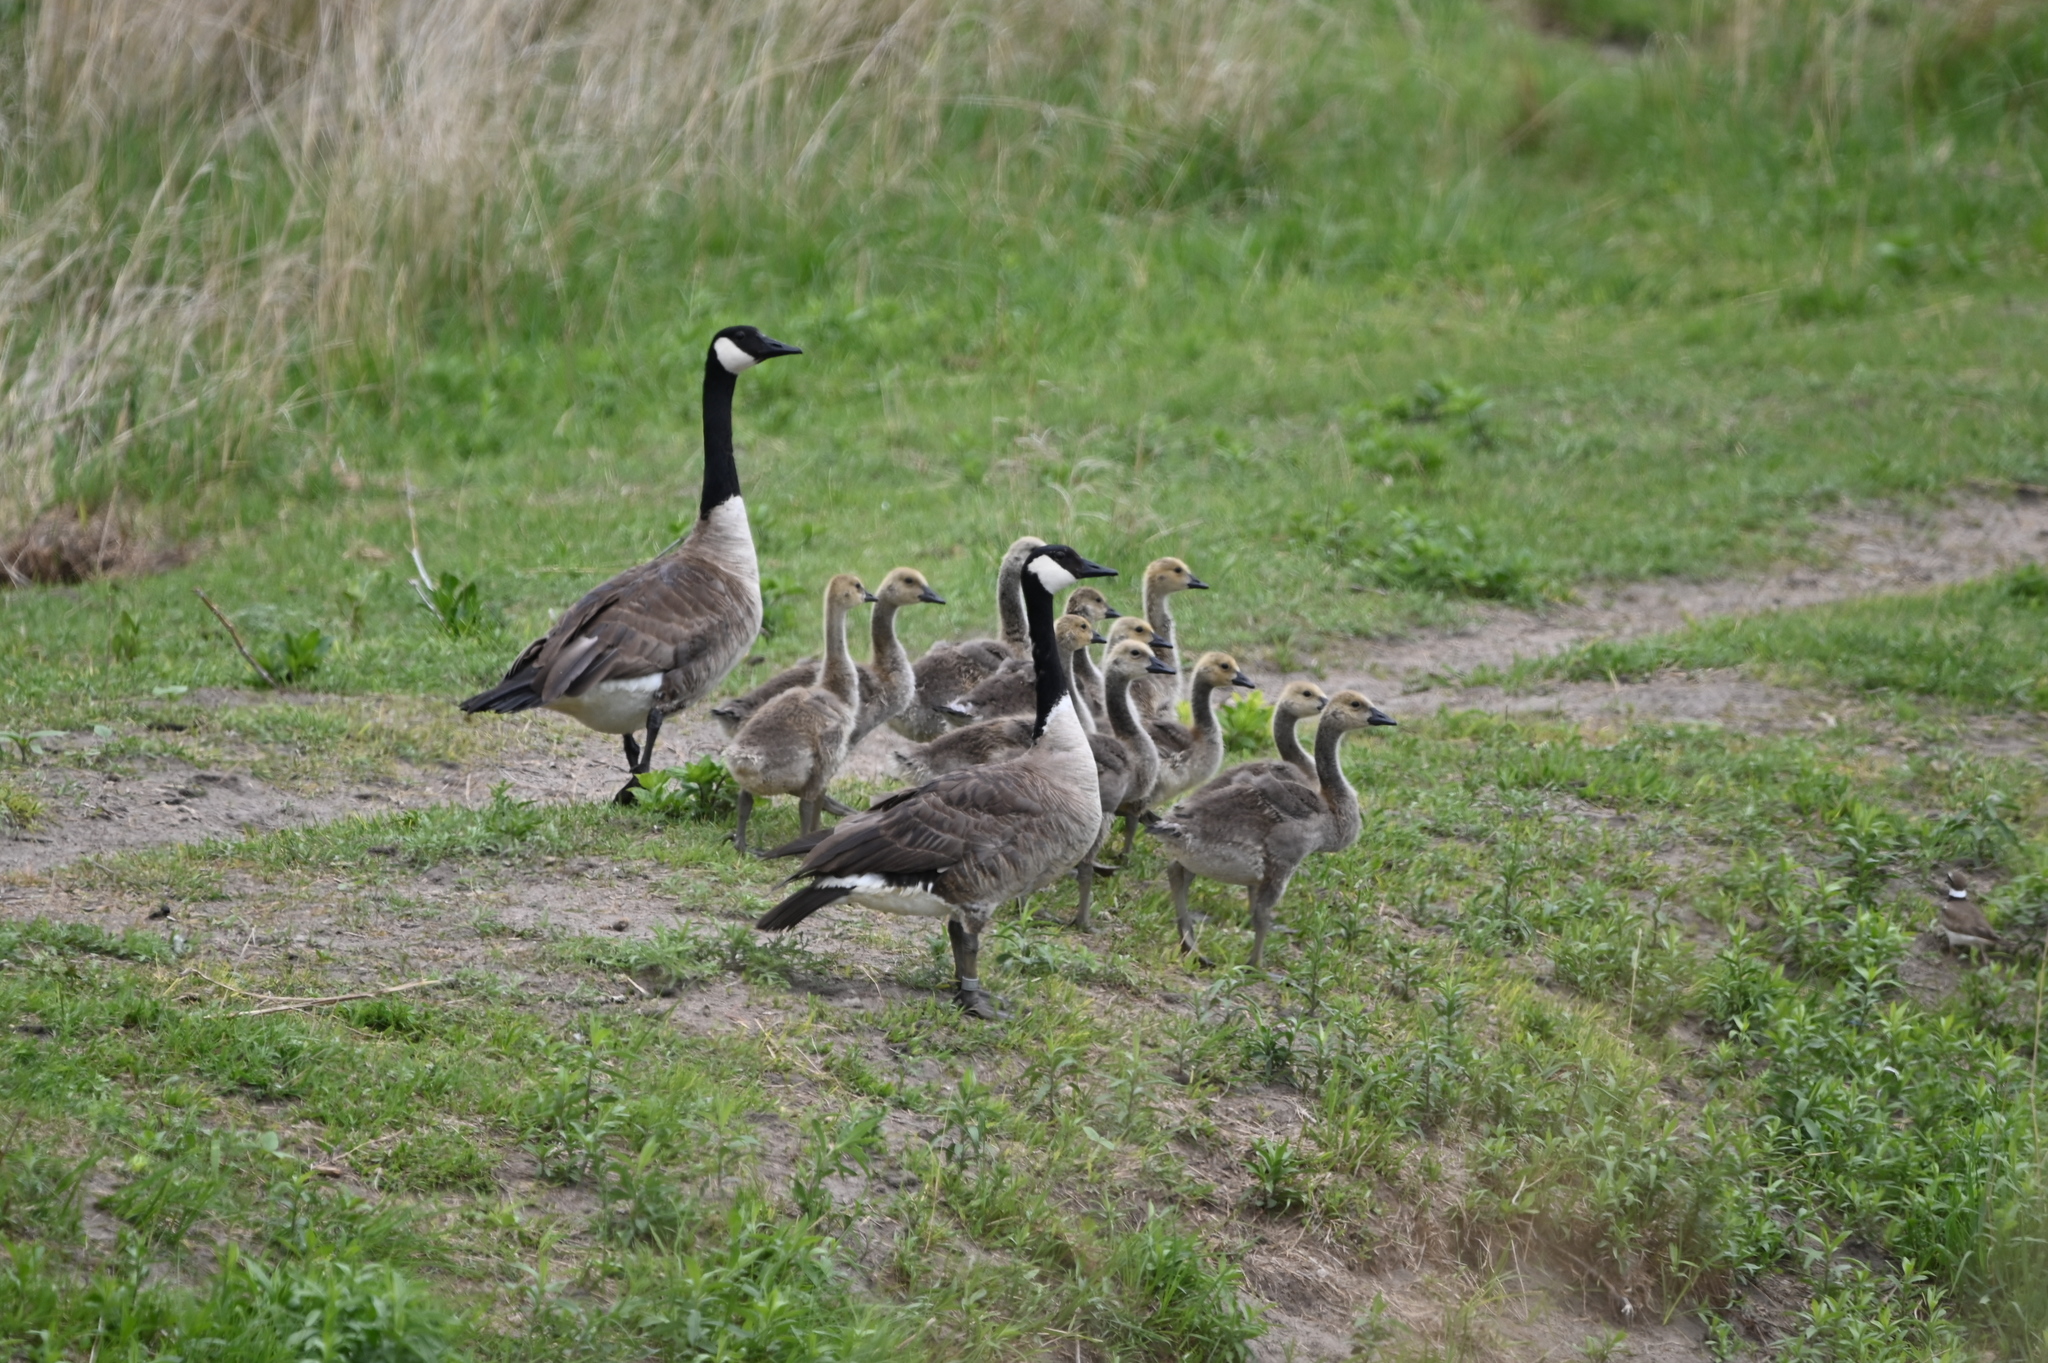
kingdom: Animalia
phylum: Chordata
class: Aves
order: Anseriformes
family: Anatidae
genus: Branta
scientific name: Branta canadensis
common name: Canada goose
